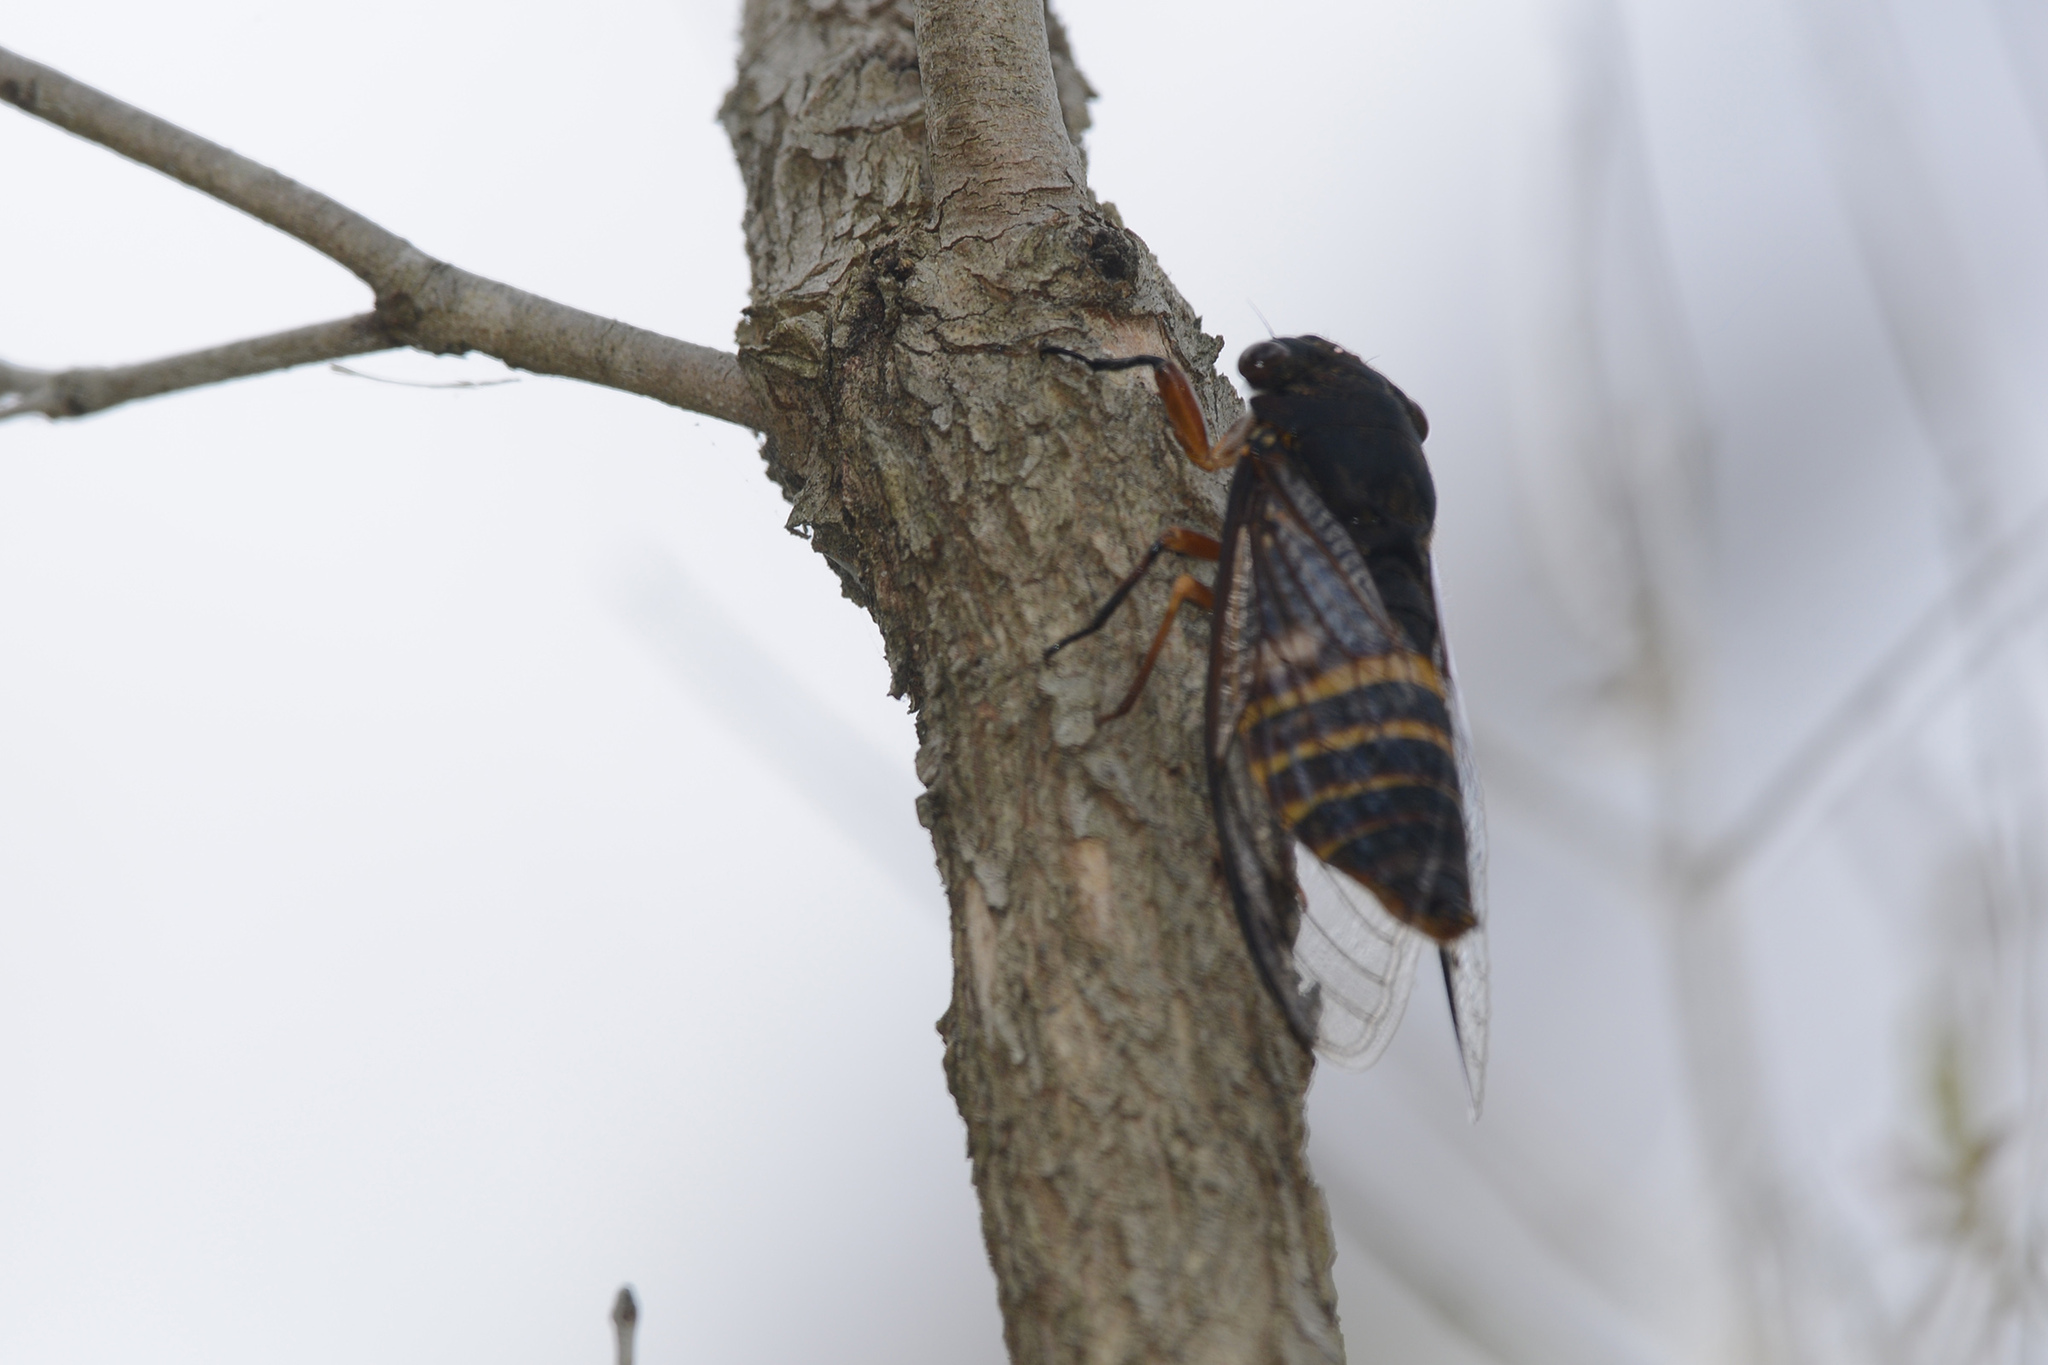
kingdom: Animalia
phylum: Arthropoda
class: Insecta
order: Hemiptera
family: Cicadidae
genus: Psaltoda
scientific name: Psaltoda plaga
